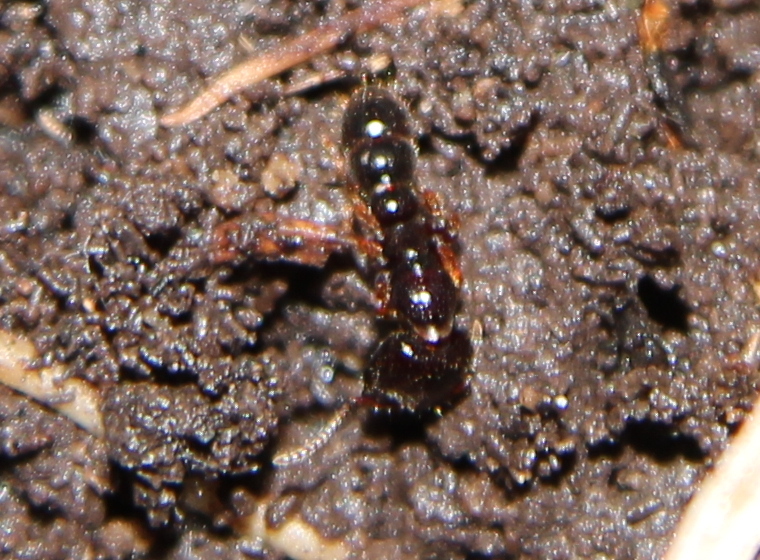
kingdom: Animalia
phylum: Arthropoda
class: Insecta
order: Hymenoptera
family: Formicidae
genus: Amblyopone
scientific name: Amblyopone australis
